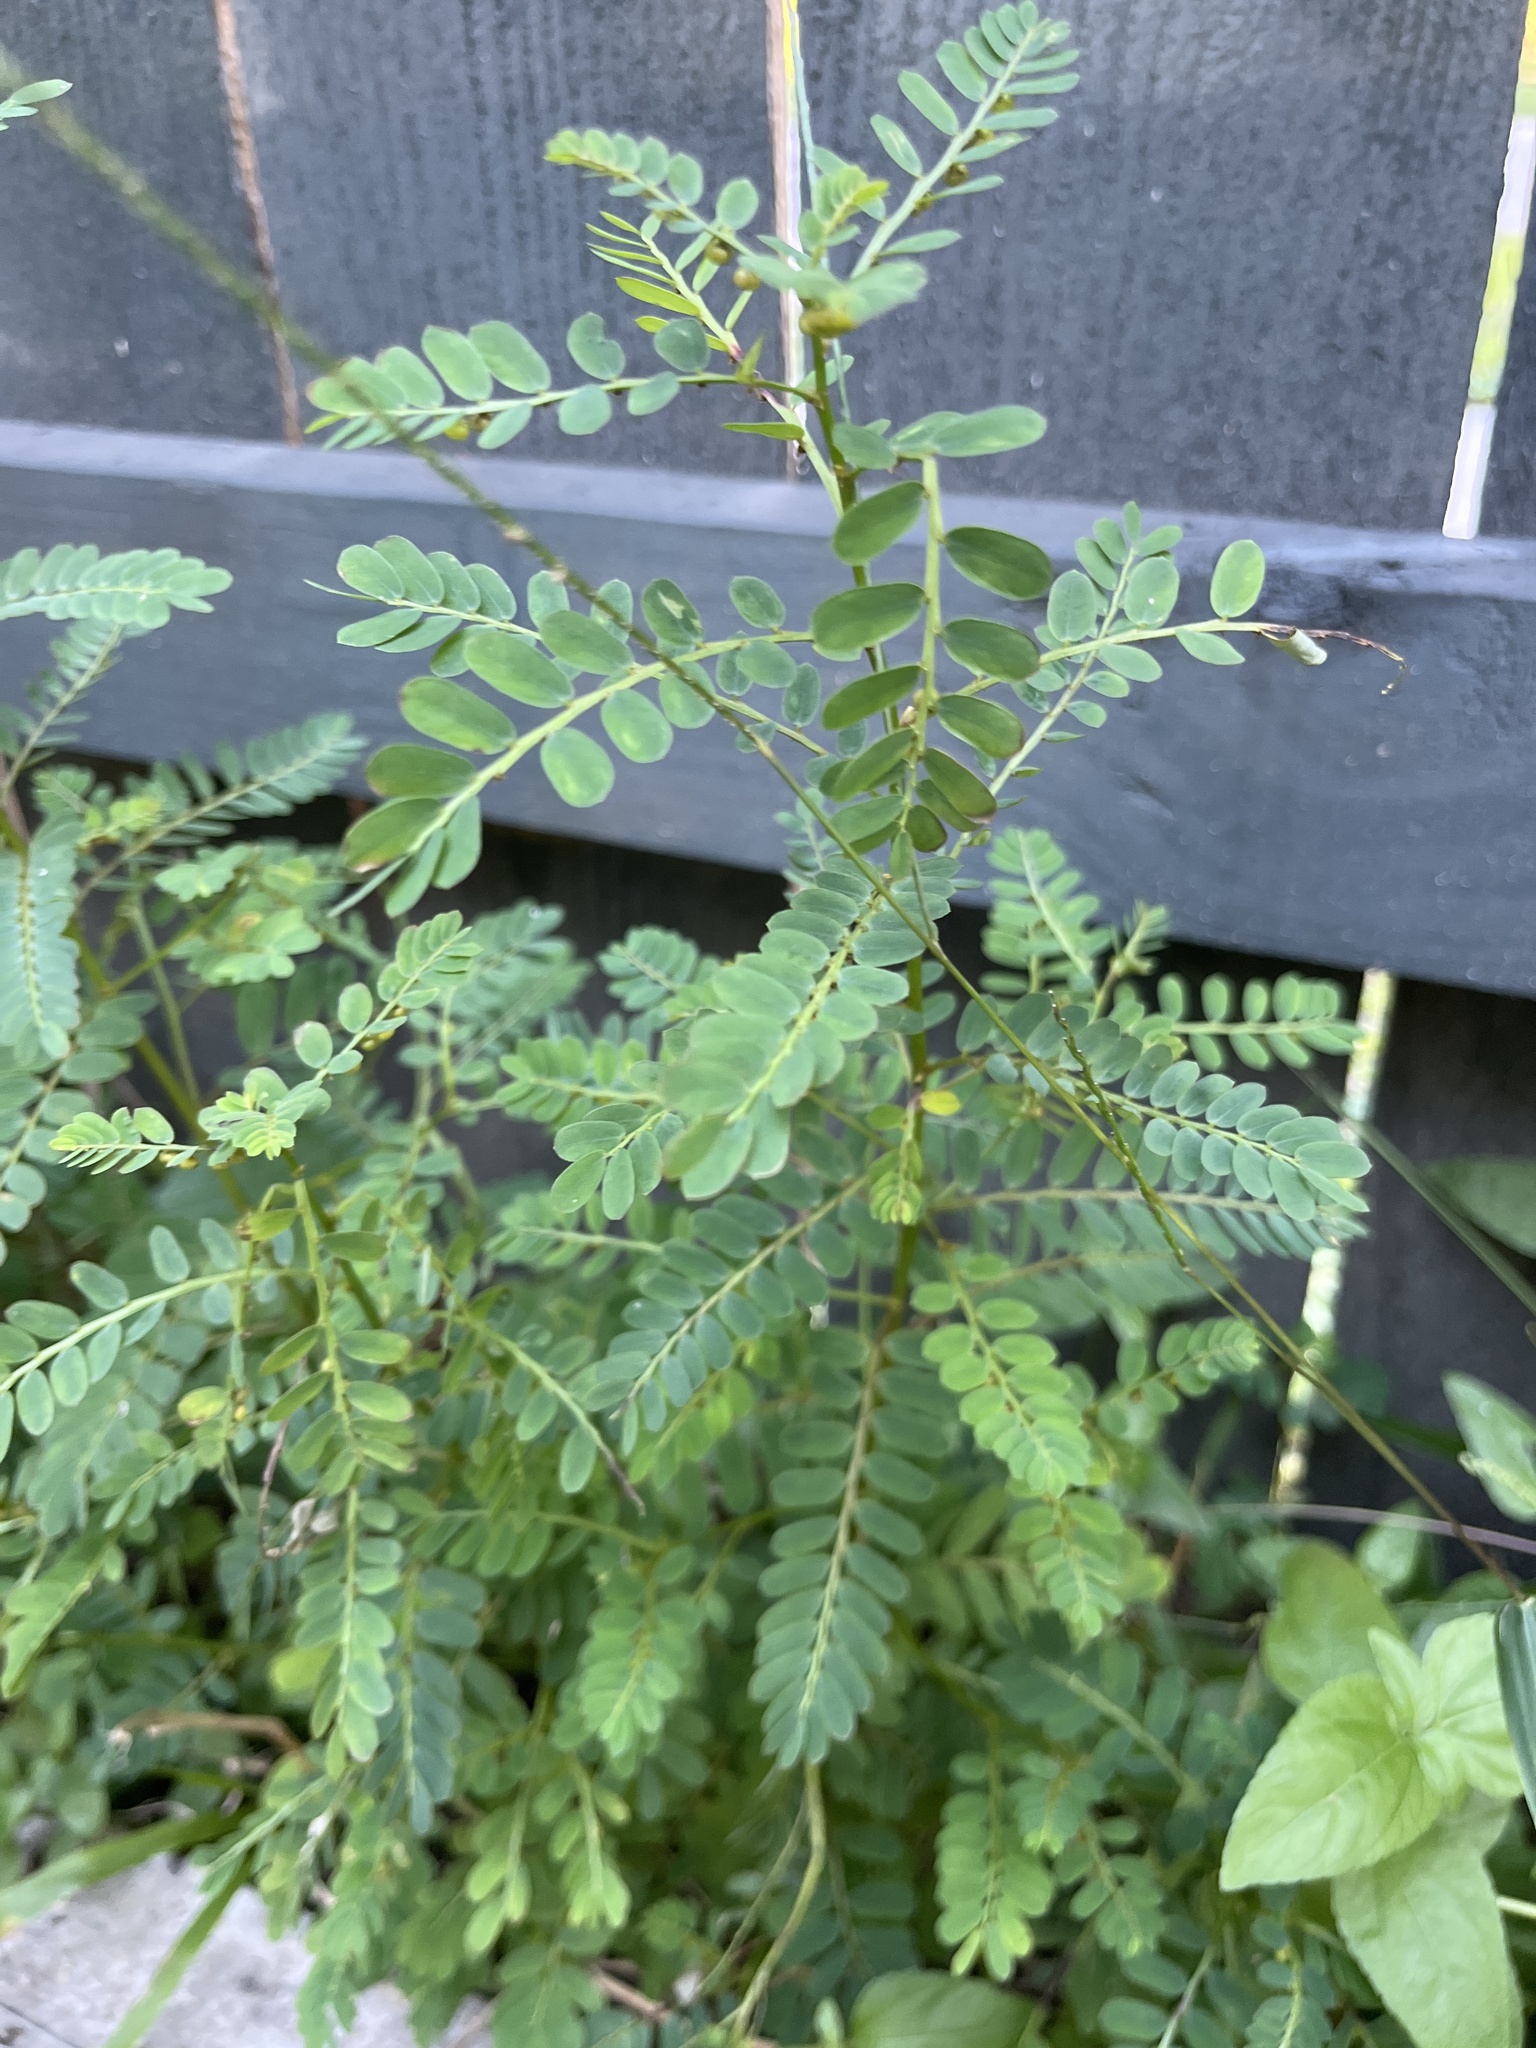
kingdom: Plantae
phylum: Tracheophyta
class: Magnoliopsida
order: Malpighiales
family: Phyllanthaceae
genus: Phyllanthus
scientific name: Phyllanthus urinaria
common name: Chamber bitter
